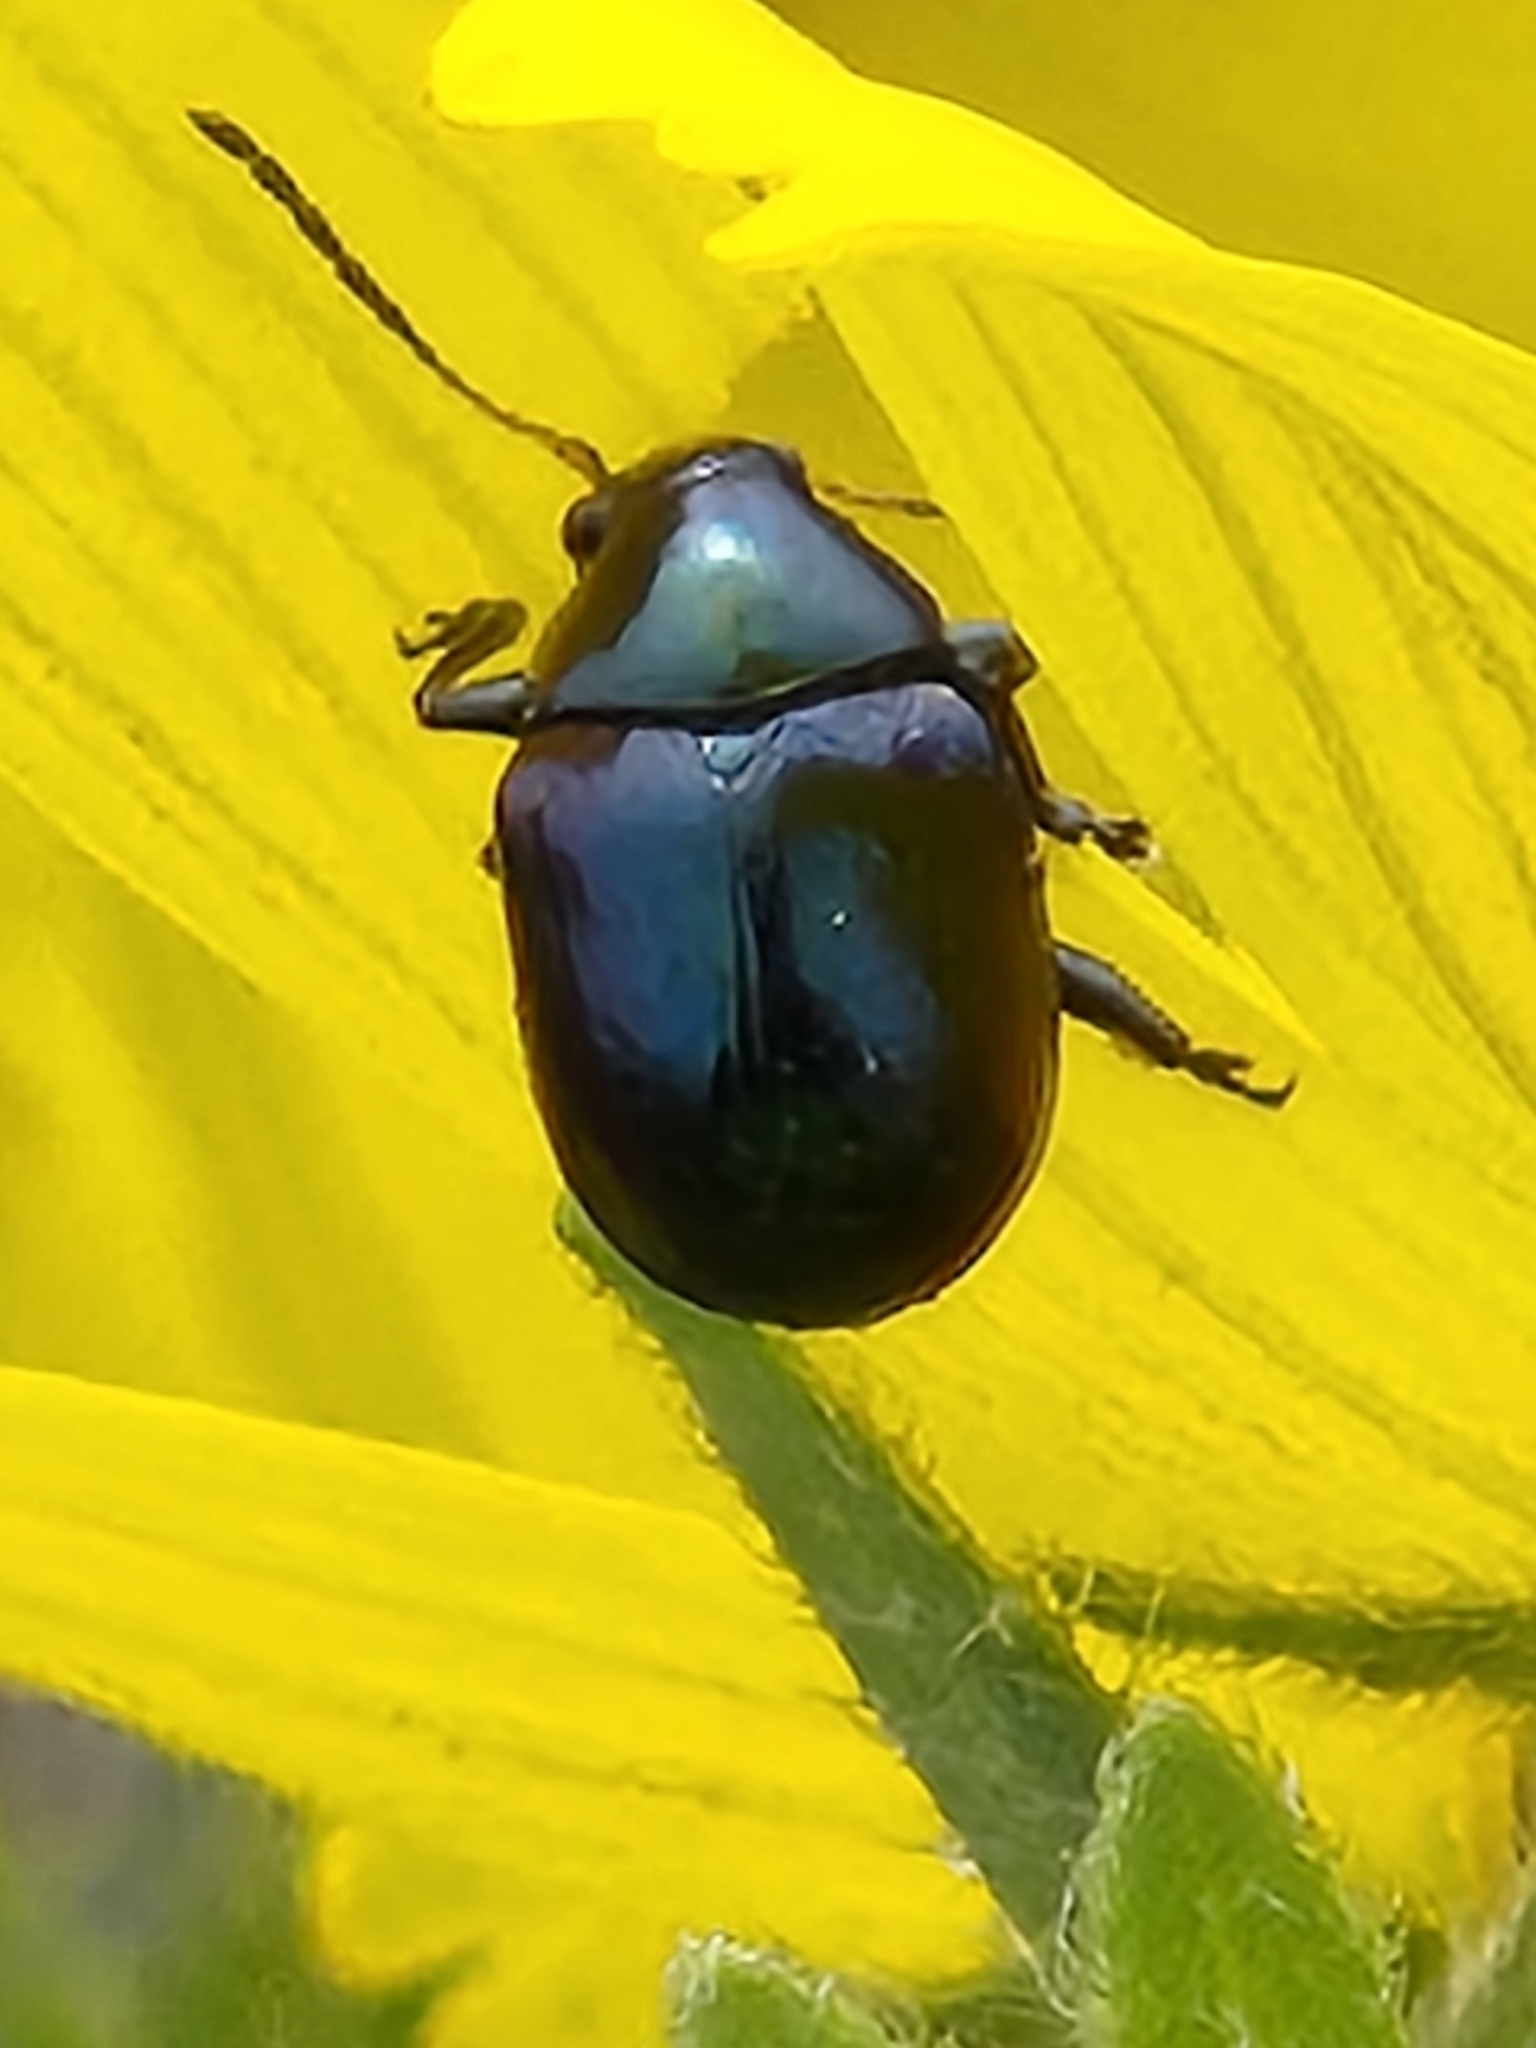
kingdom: Animalia
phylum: Arthropoda
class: Insecta
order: Coleoptera
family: Chrysomelidae
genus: Brachypnoea
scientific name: Brachypnoea lecontei
